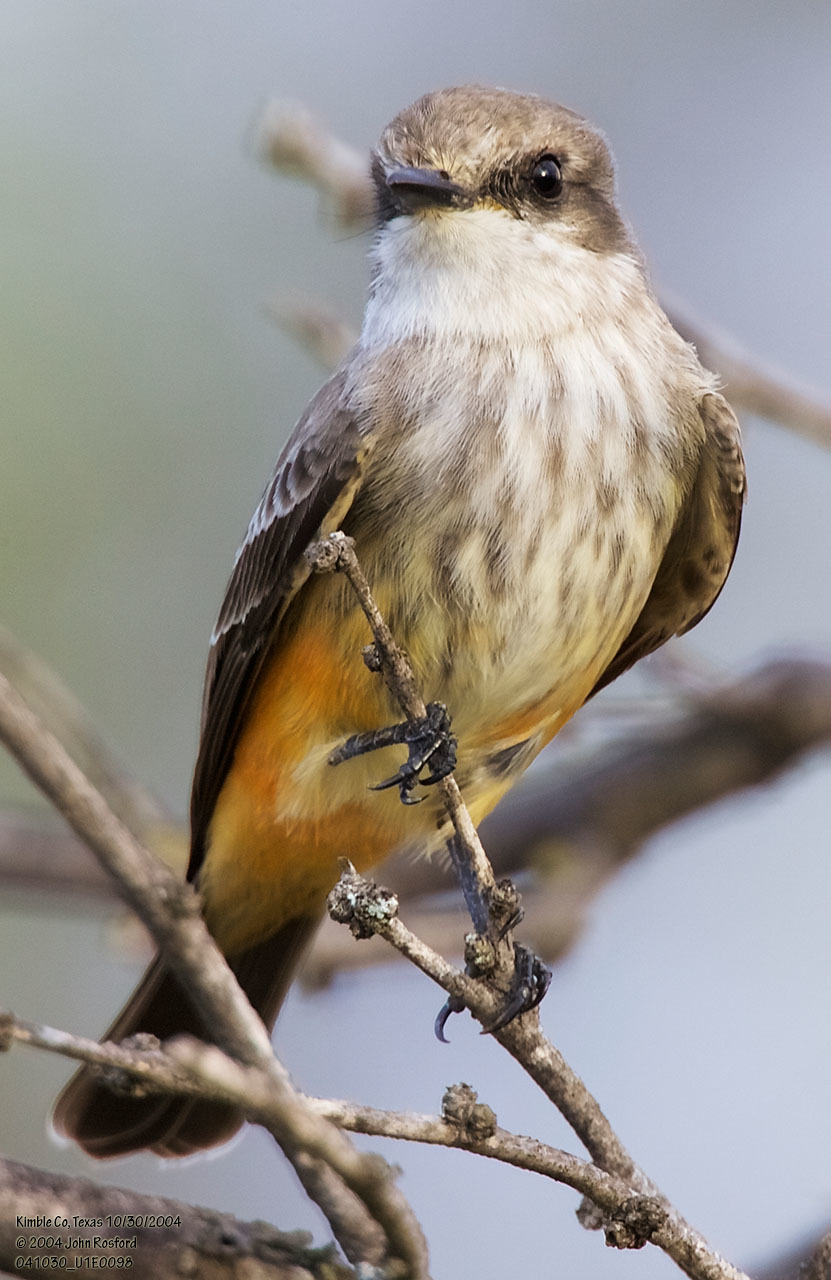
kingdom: Animalia
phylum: Chordata
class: Aves
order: Passeriformes
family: Tyrannidae
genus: Pyrocephalus
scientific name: Pyrocephalus rubinus
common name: Vermilion flycatcher
